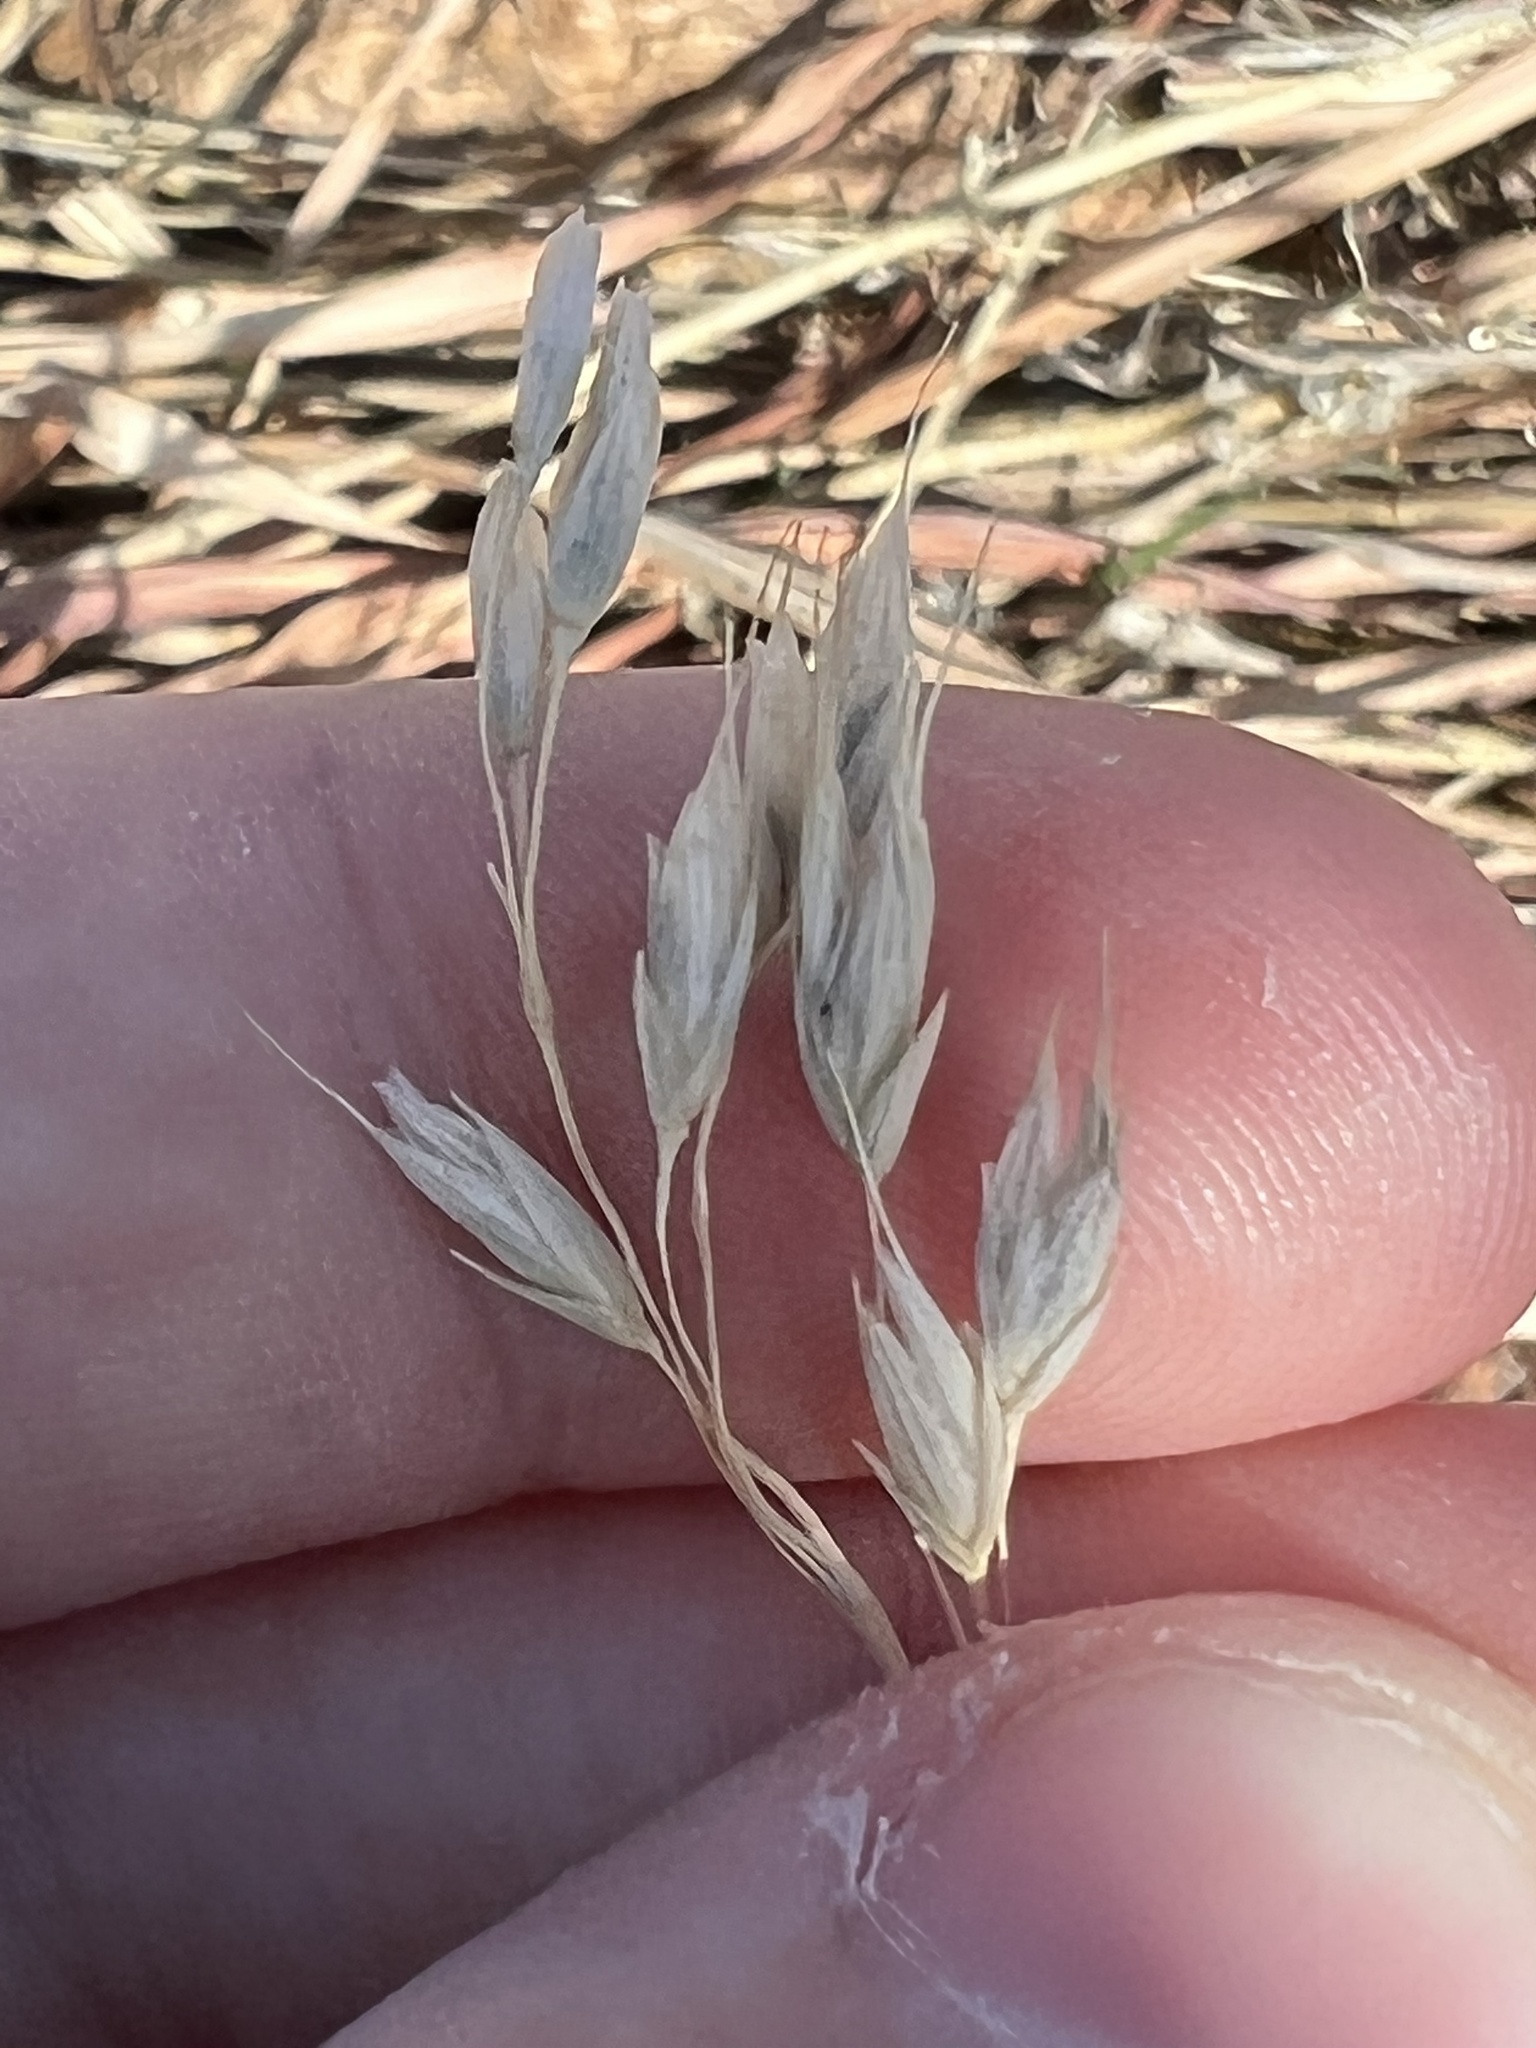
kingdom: Plantae
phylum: Tracheophyta
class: Liliopsida
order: Poales
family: Poaceae
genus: Bromus
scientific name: Bromus japonicus
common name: Japanese brome
